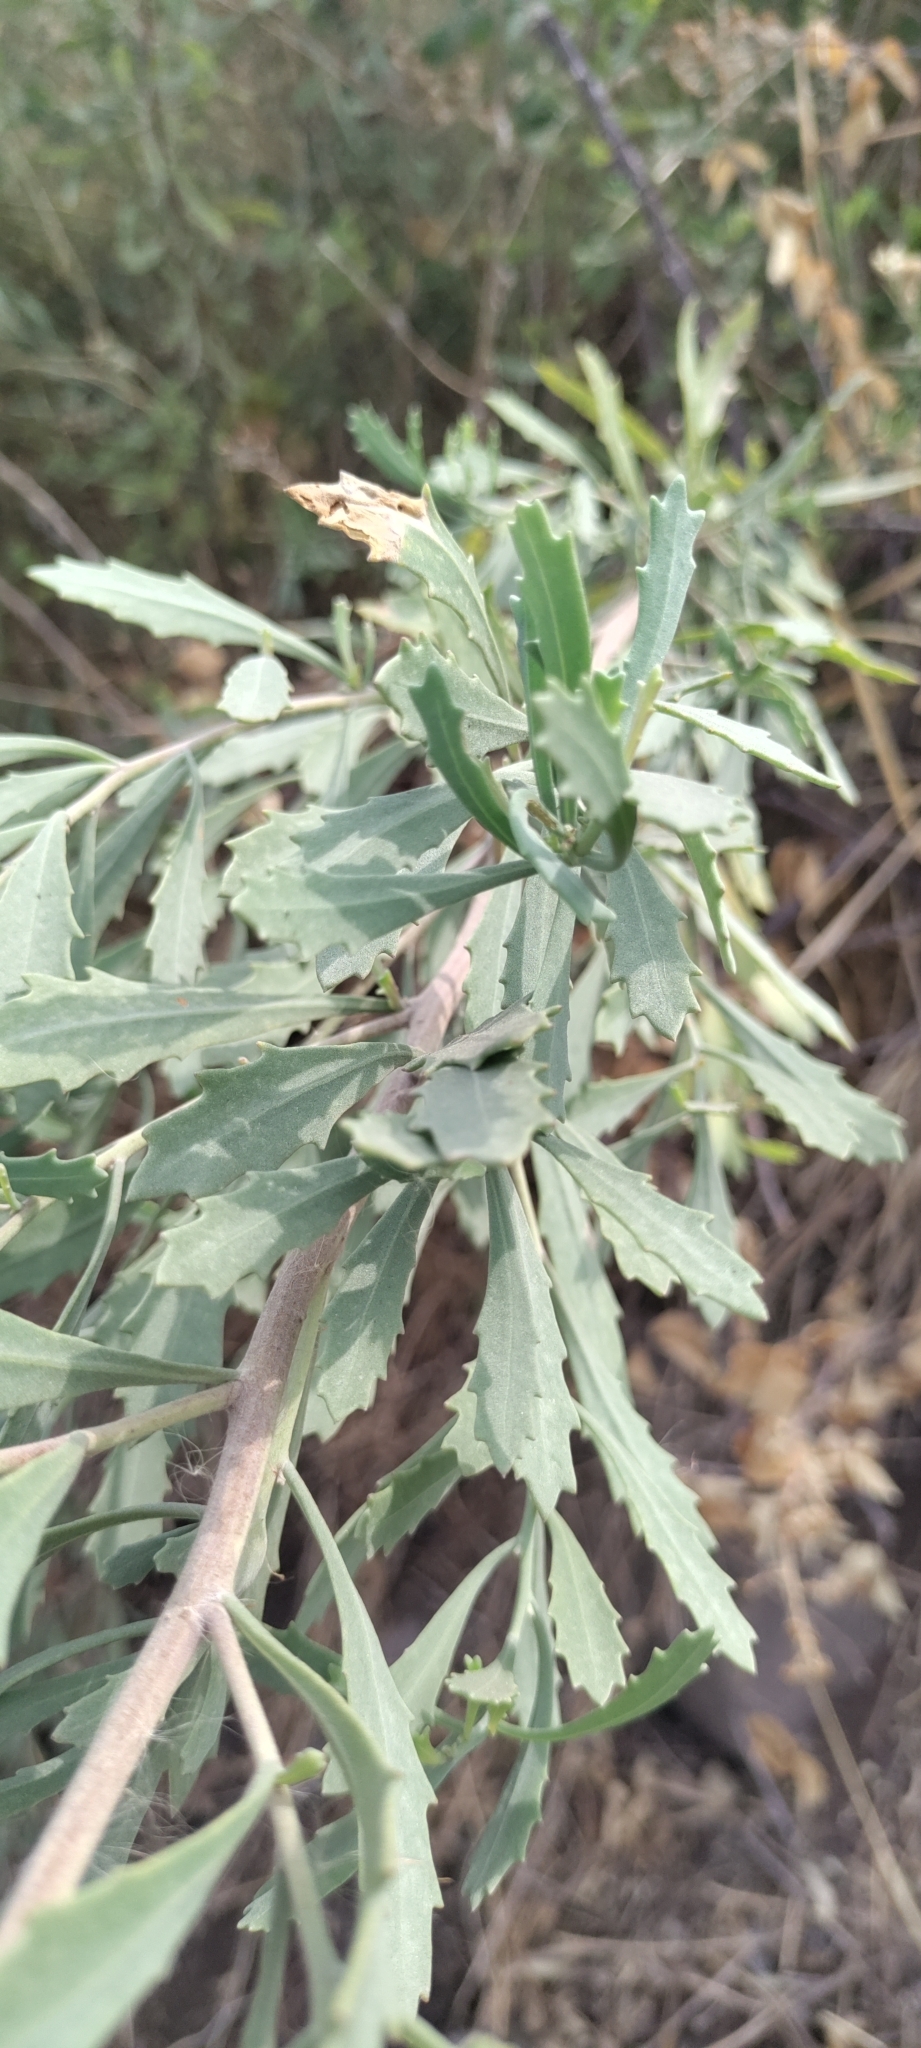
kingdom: Plantae
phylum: Tracheophyta
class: Magnoliopsida
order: Asterales
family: Asteraceae
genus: Tessaria
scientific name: Tessaria absinthioides
